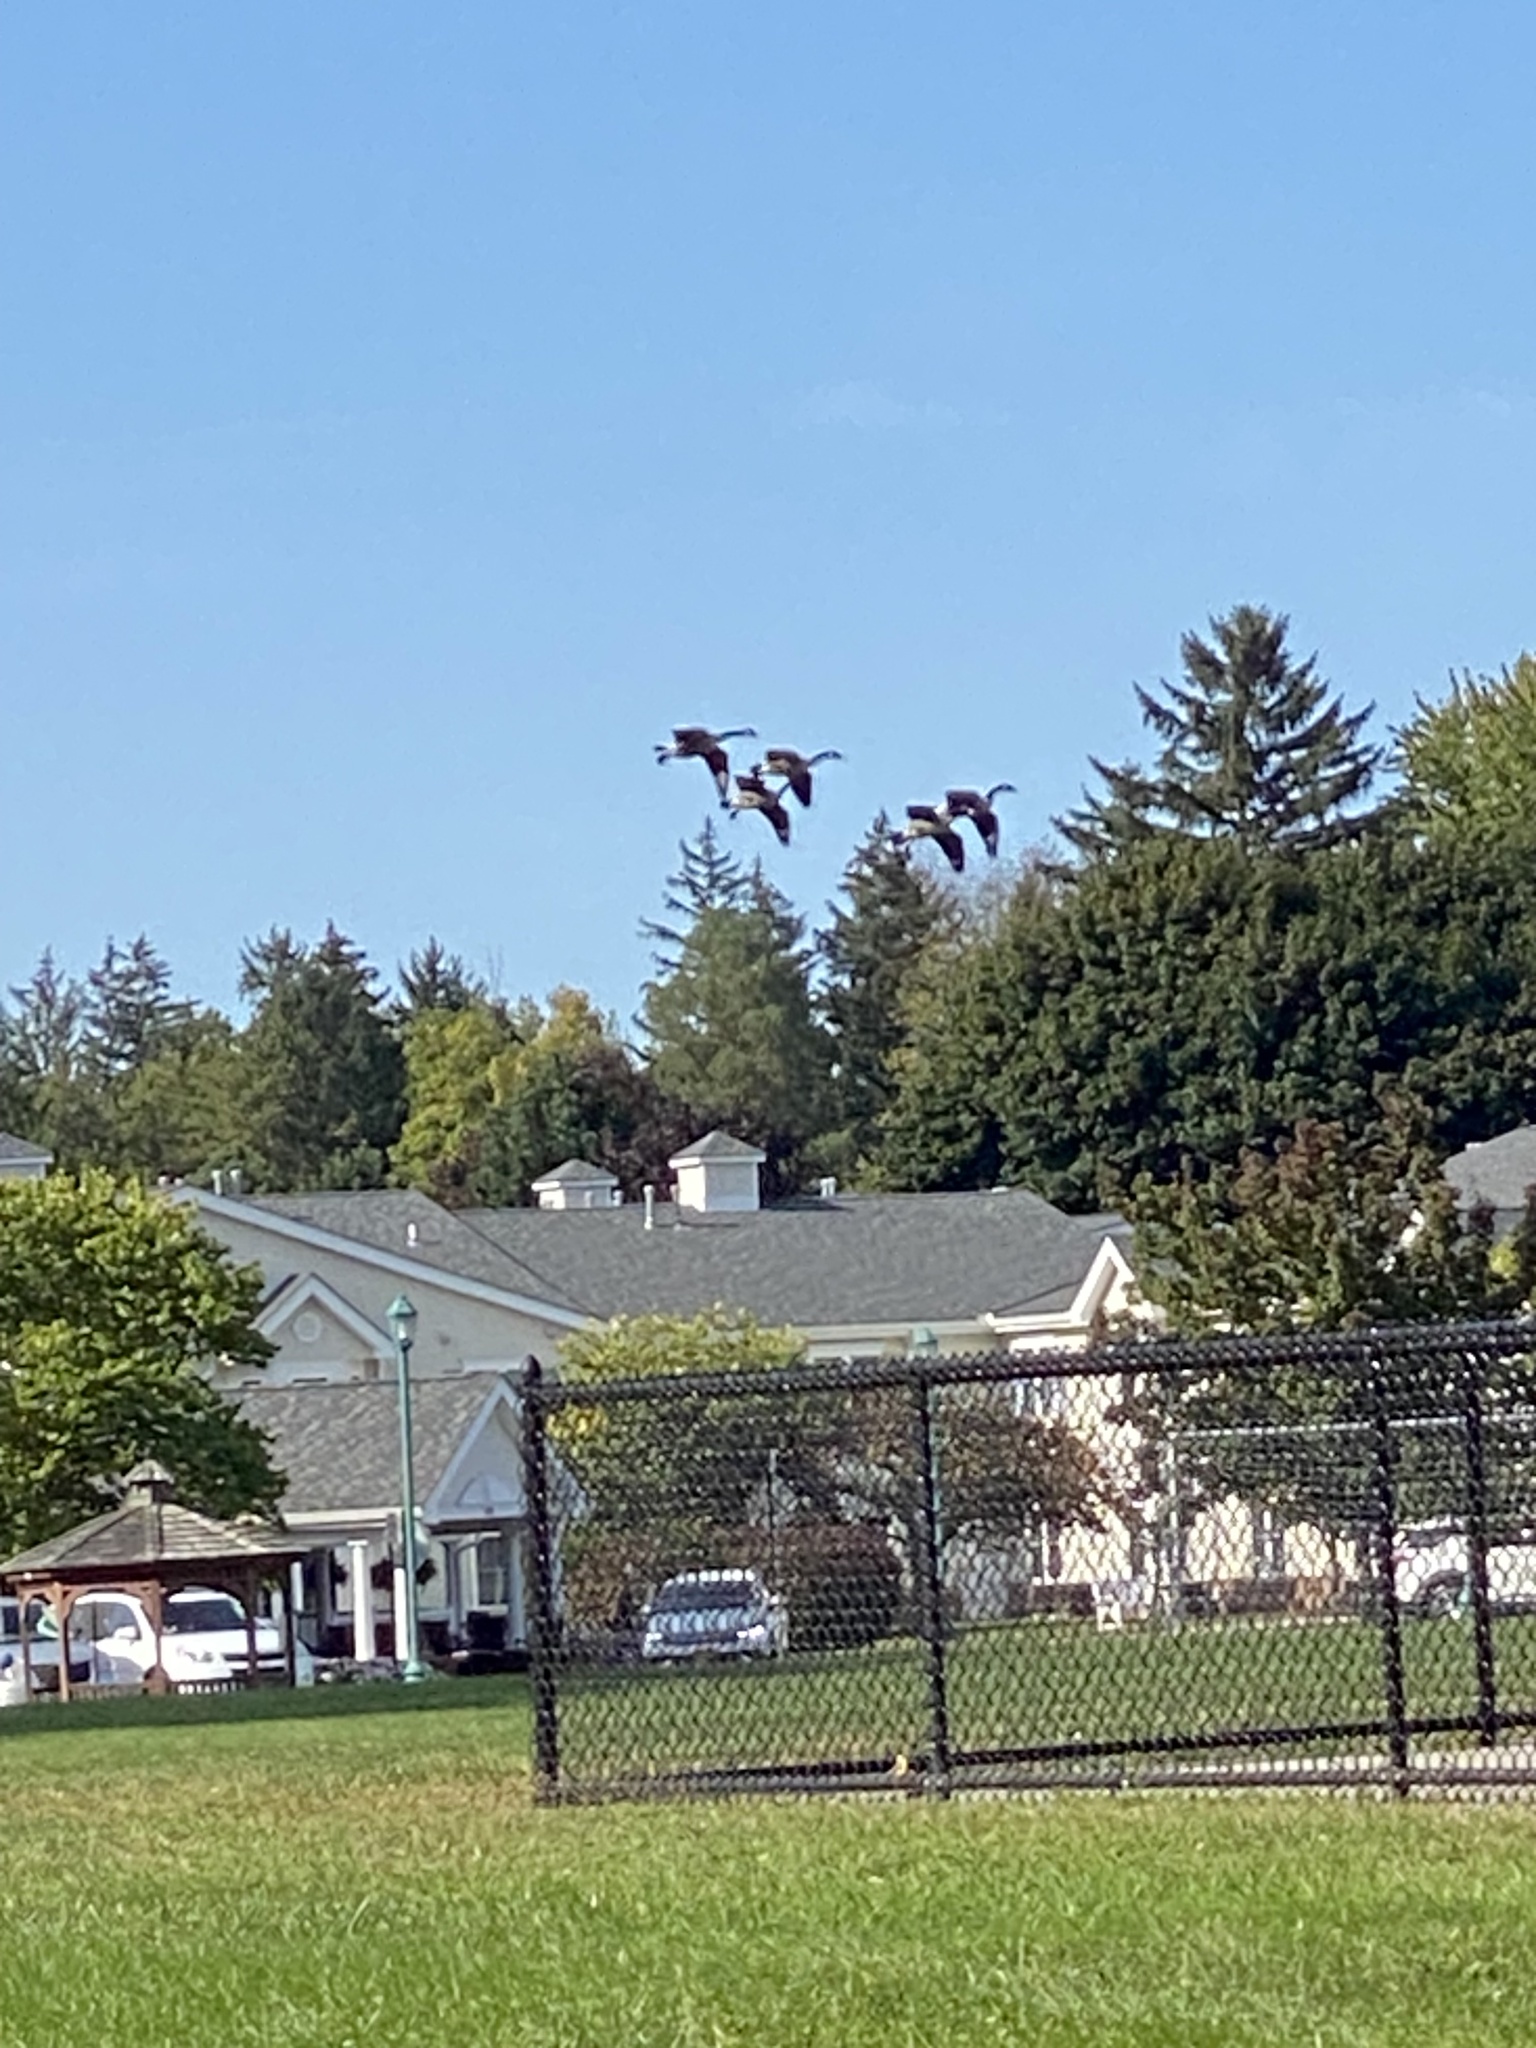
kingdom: Animalia
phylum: Chordata
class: Aves
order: Anseriformes
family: Anatidae
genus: Branta
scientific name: Branta canadensis
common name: Canada goose
